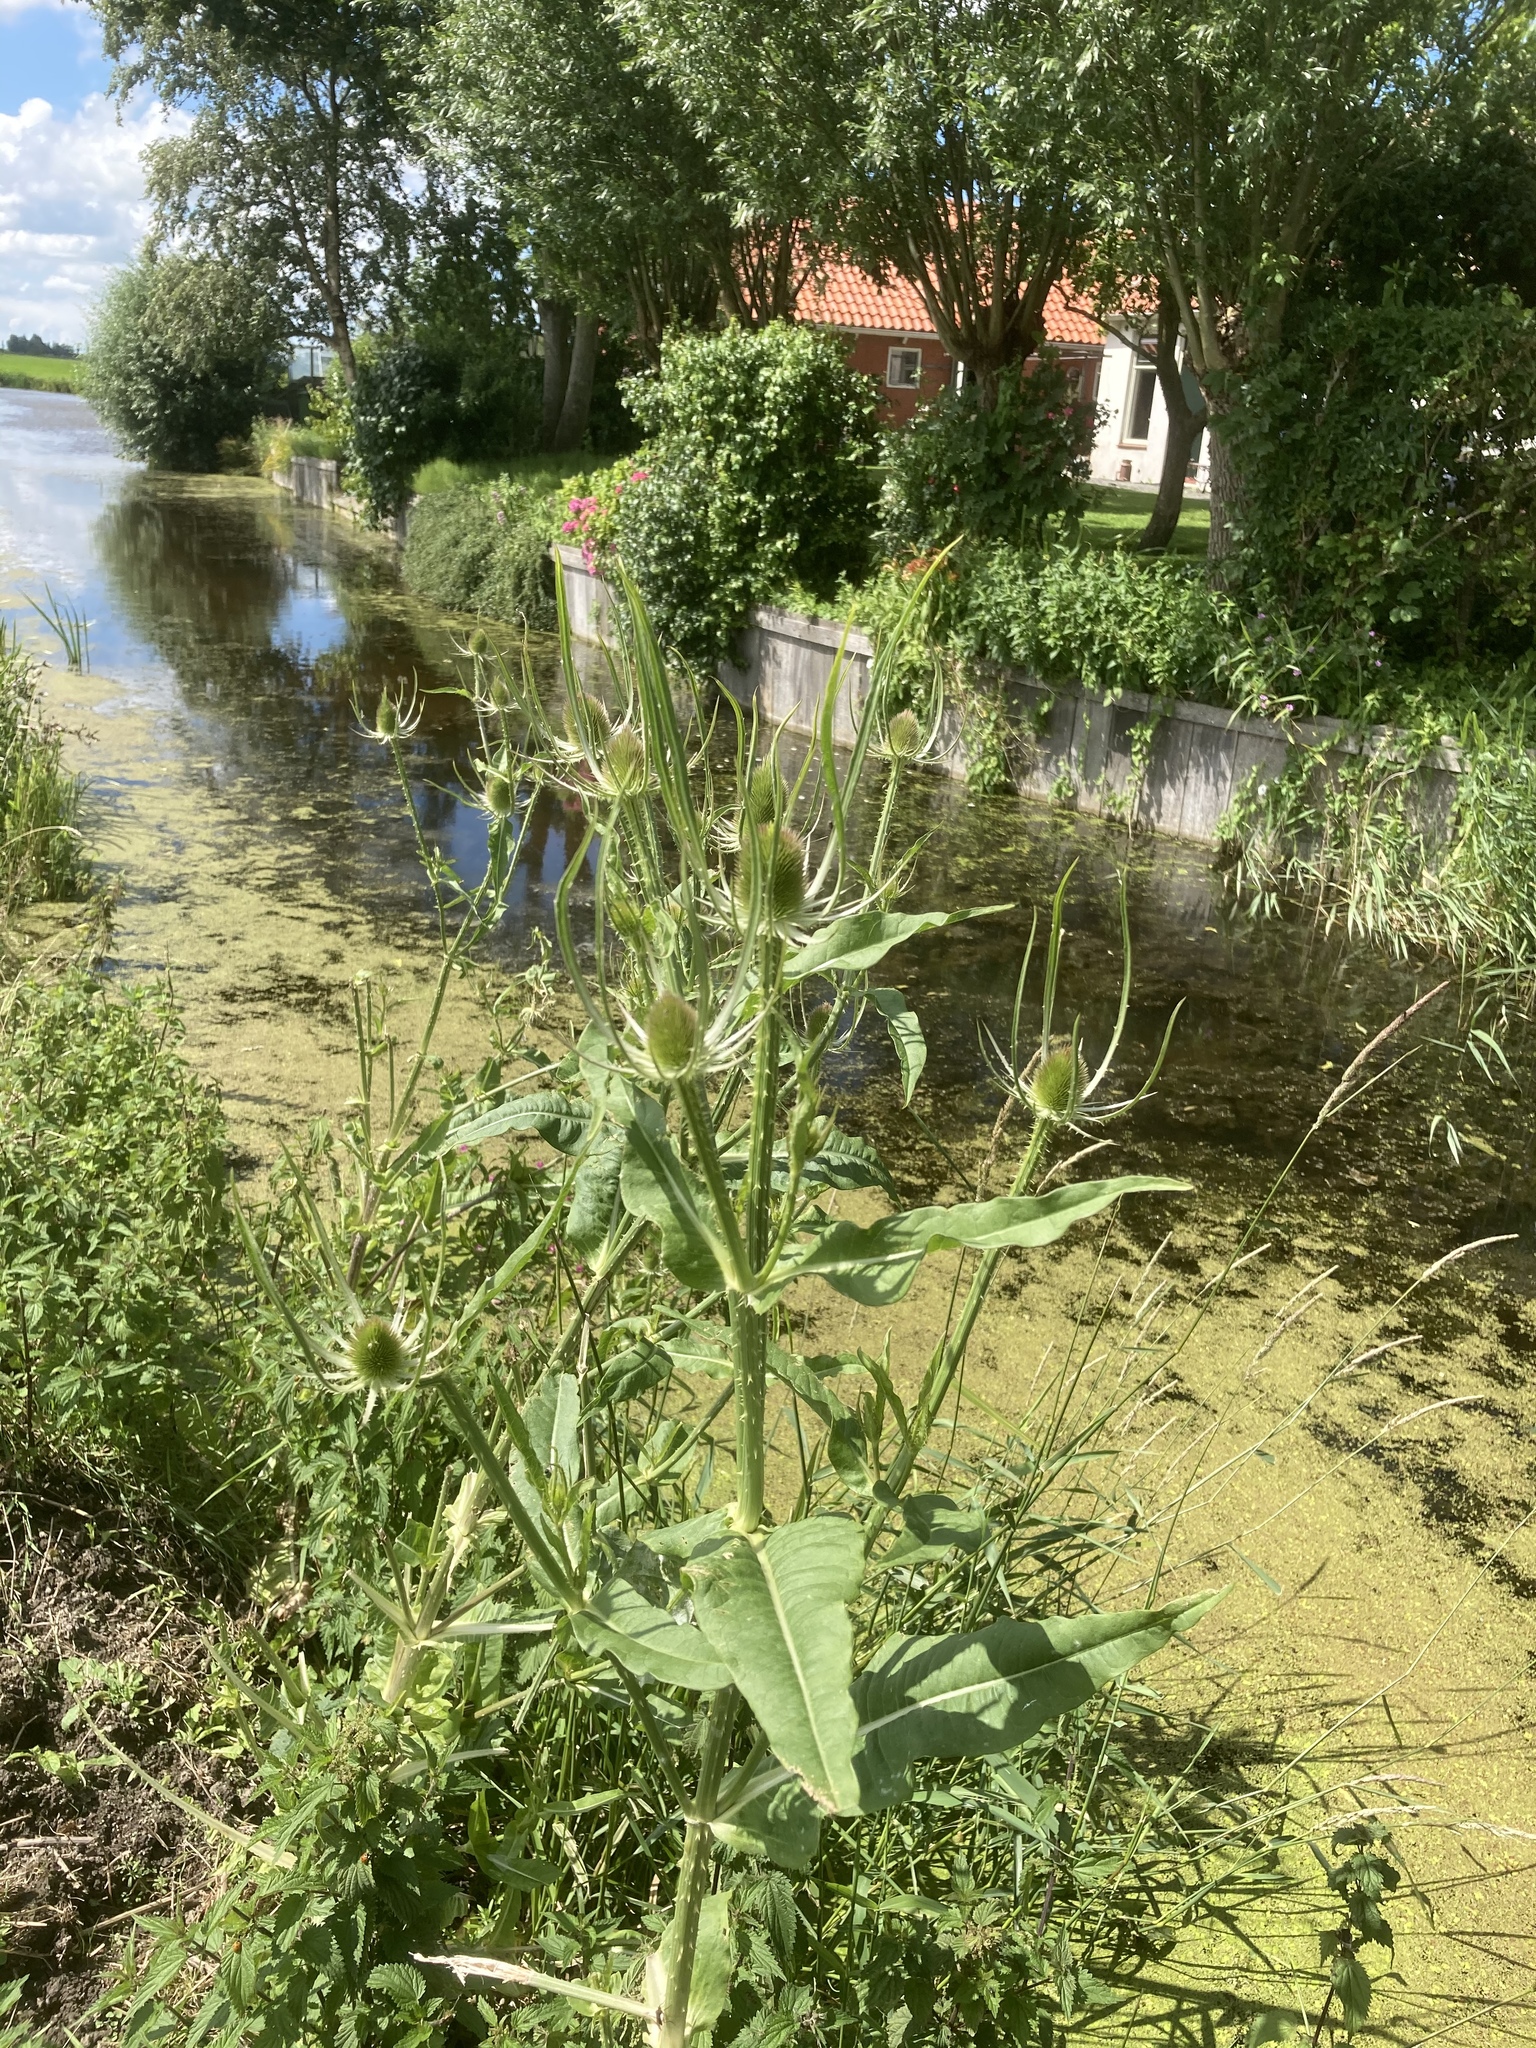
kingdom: Plantae
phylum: Tracheophyta
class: Magnoliopsida
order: Dipsacales
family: Caprifoliaceae
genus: Dipsacus
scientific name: Dipsacus fullonum
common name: Teasel
